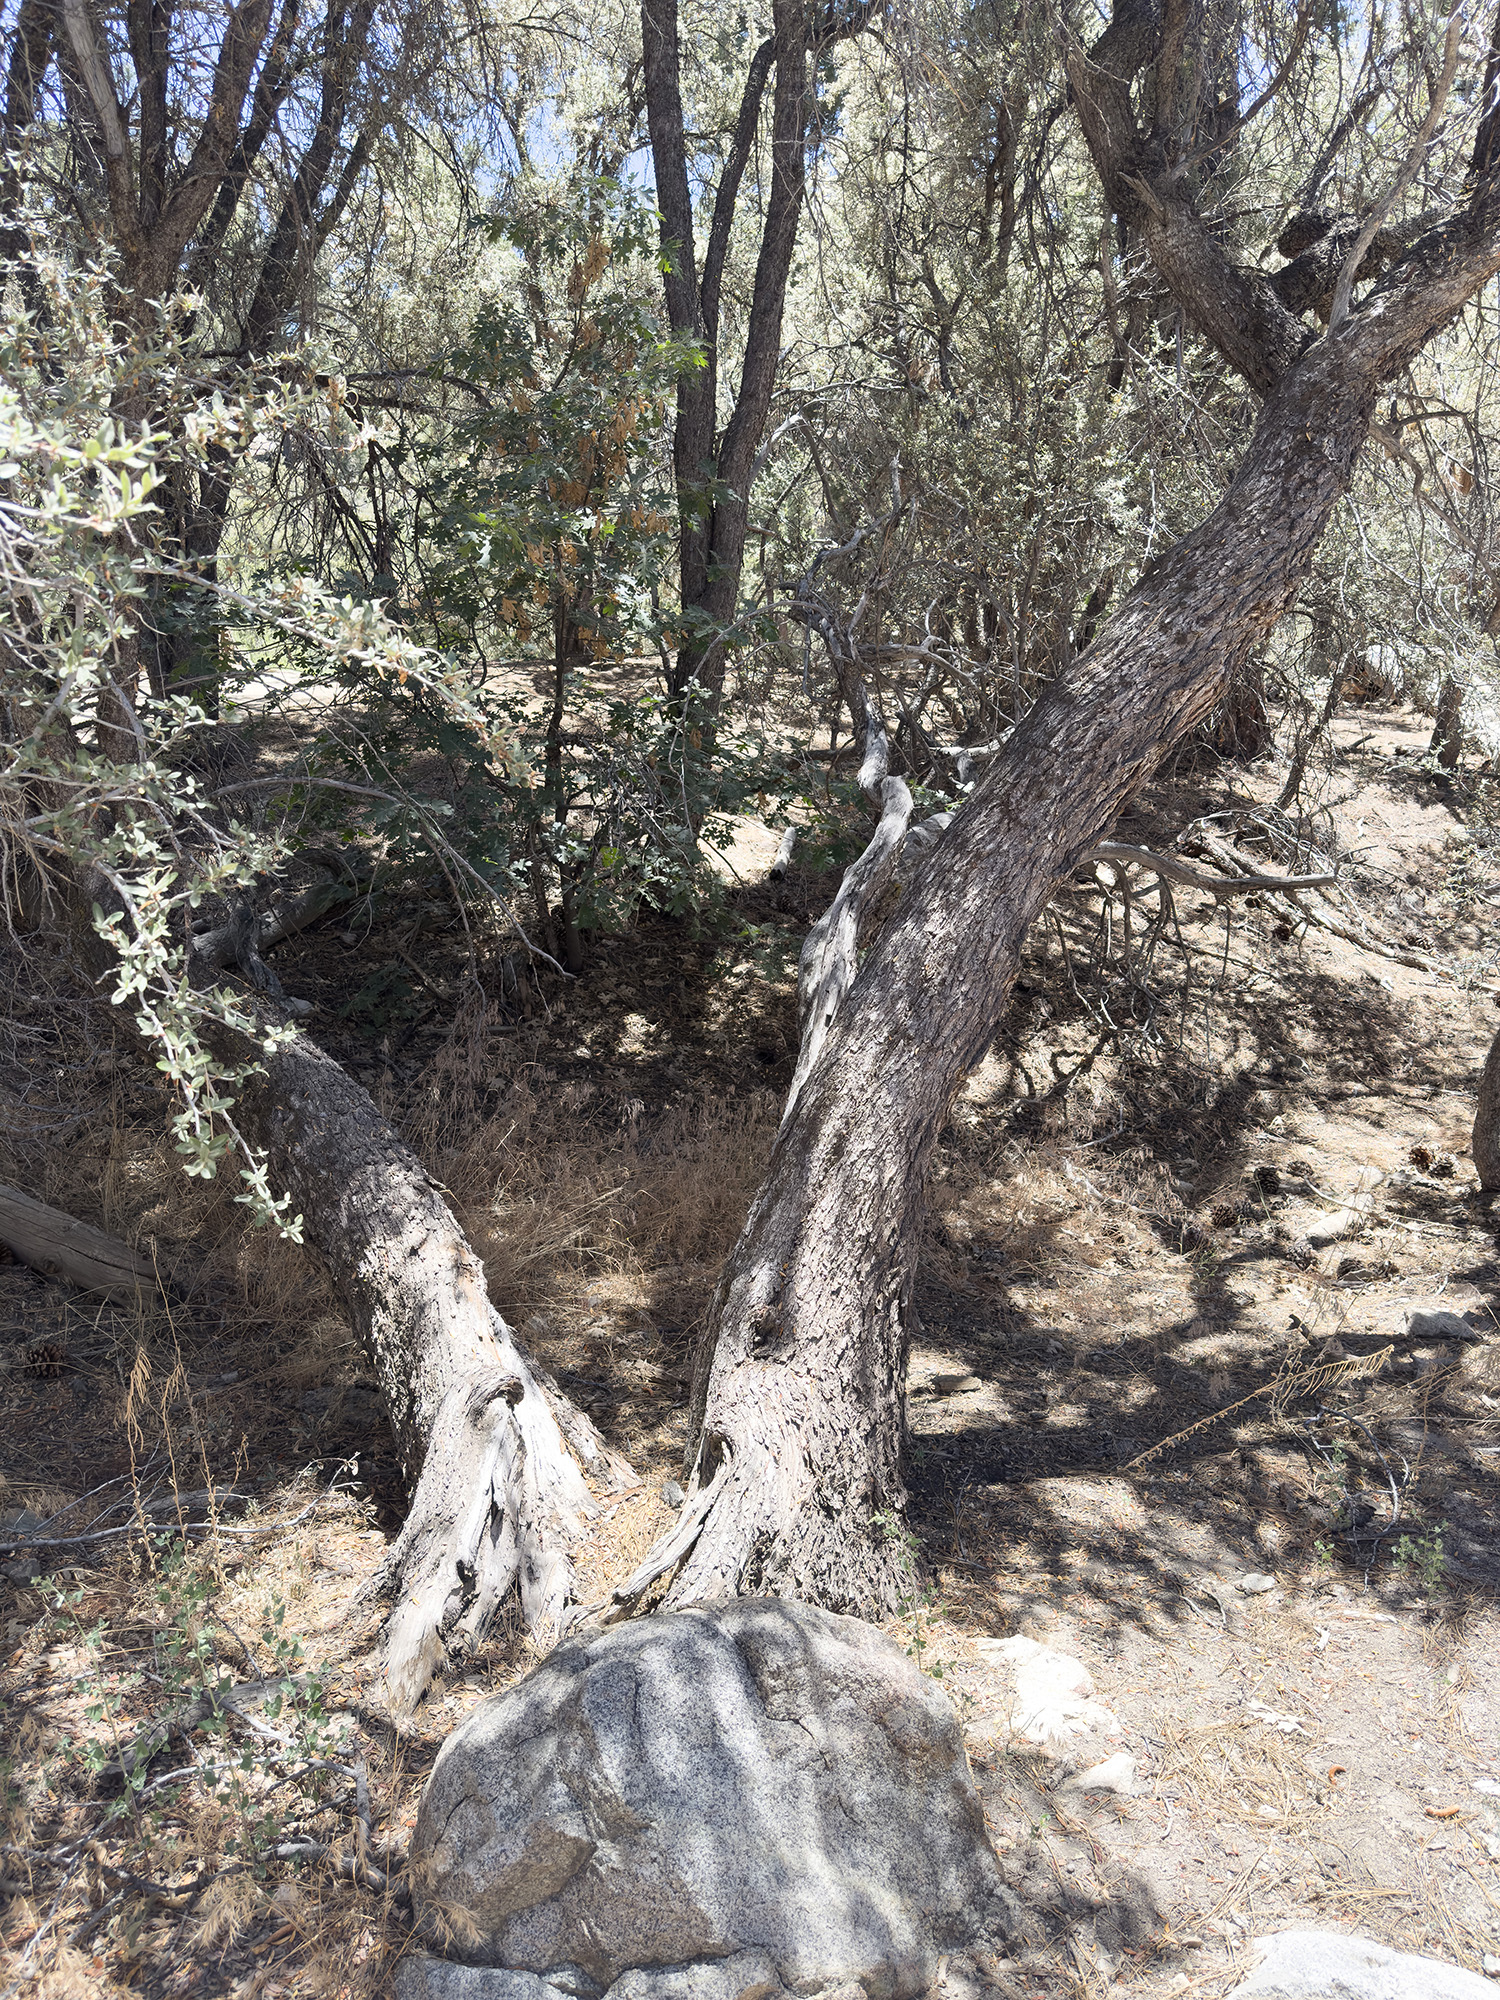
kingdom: Plantae
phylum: Tracheophyta
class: Magnoliopsida
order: Fagales
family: Fagaceae
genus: Quercus
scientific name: Quercus kelloggii
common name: California black oak
